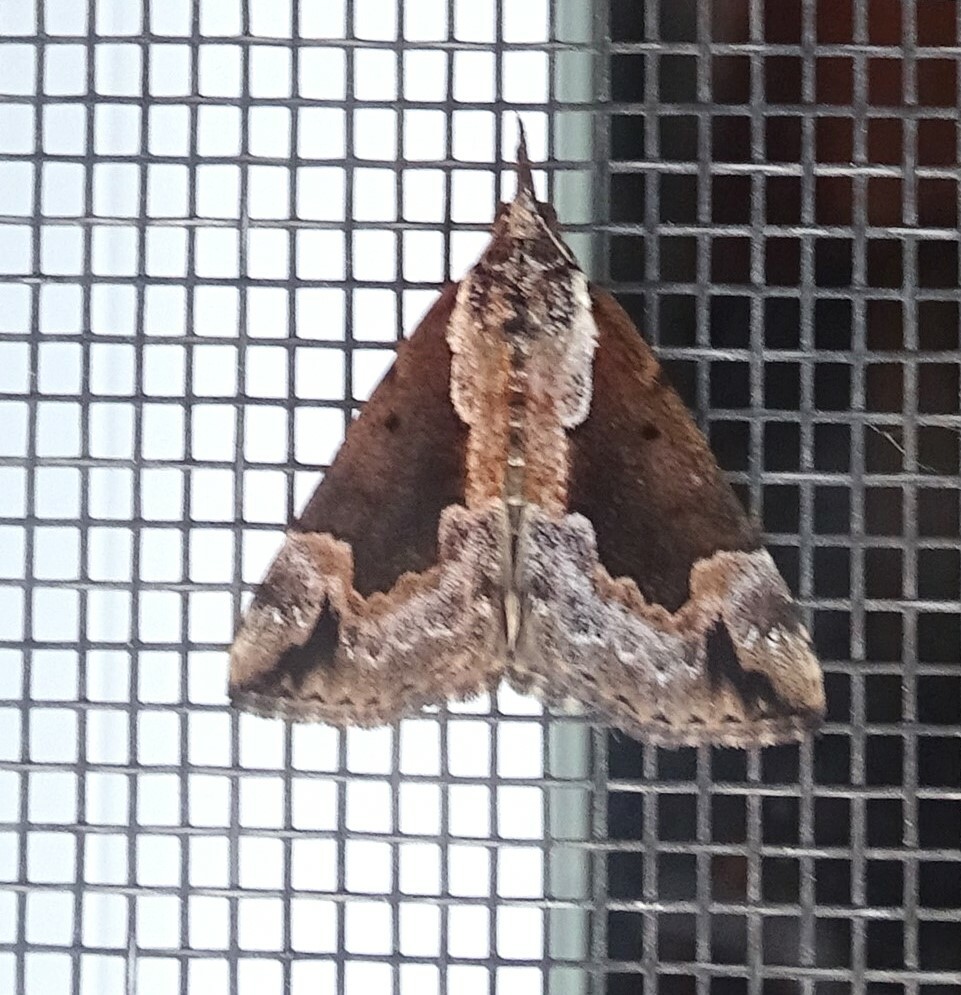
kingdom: Animalia
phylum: Arthropoda
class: Insecta
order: Lepidoptera
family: Erebidae
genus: Hypena
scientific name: Hypena baltimoralis
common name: Baltimore snout
